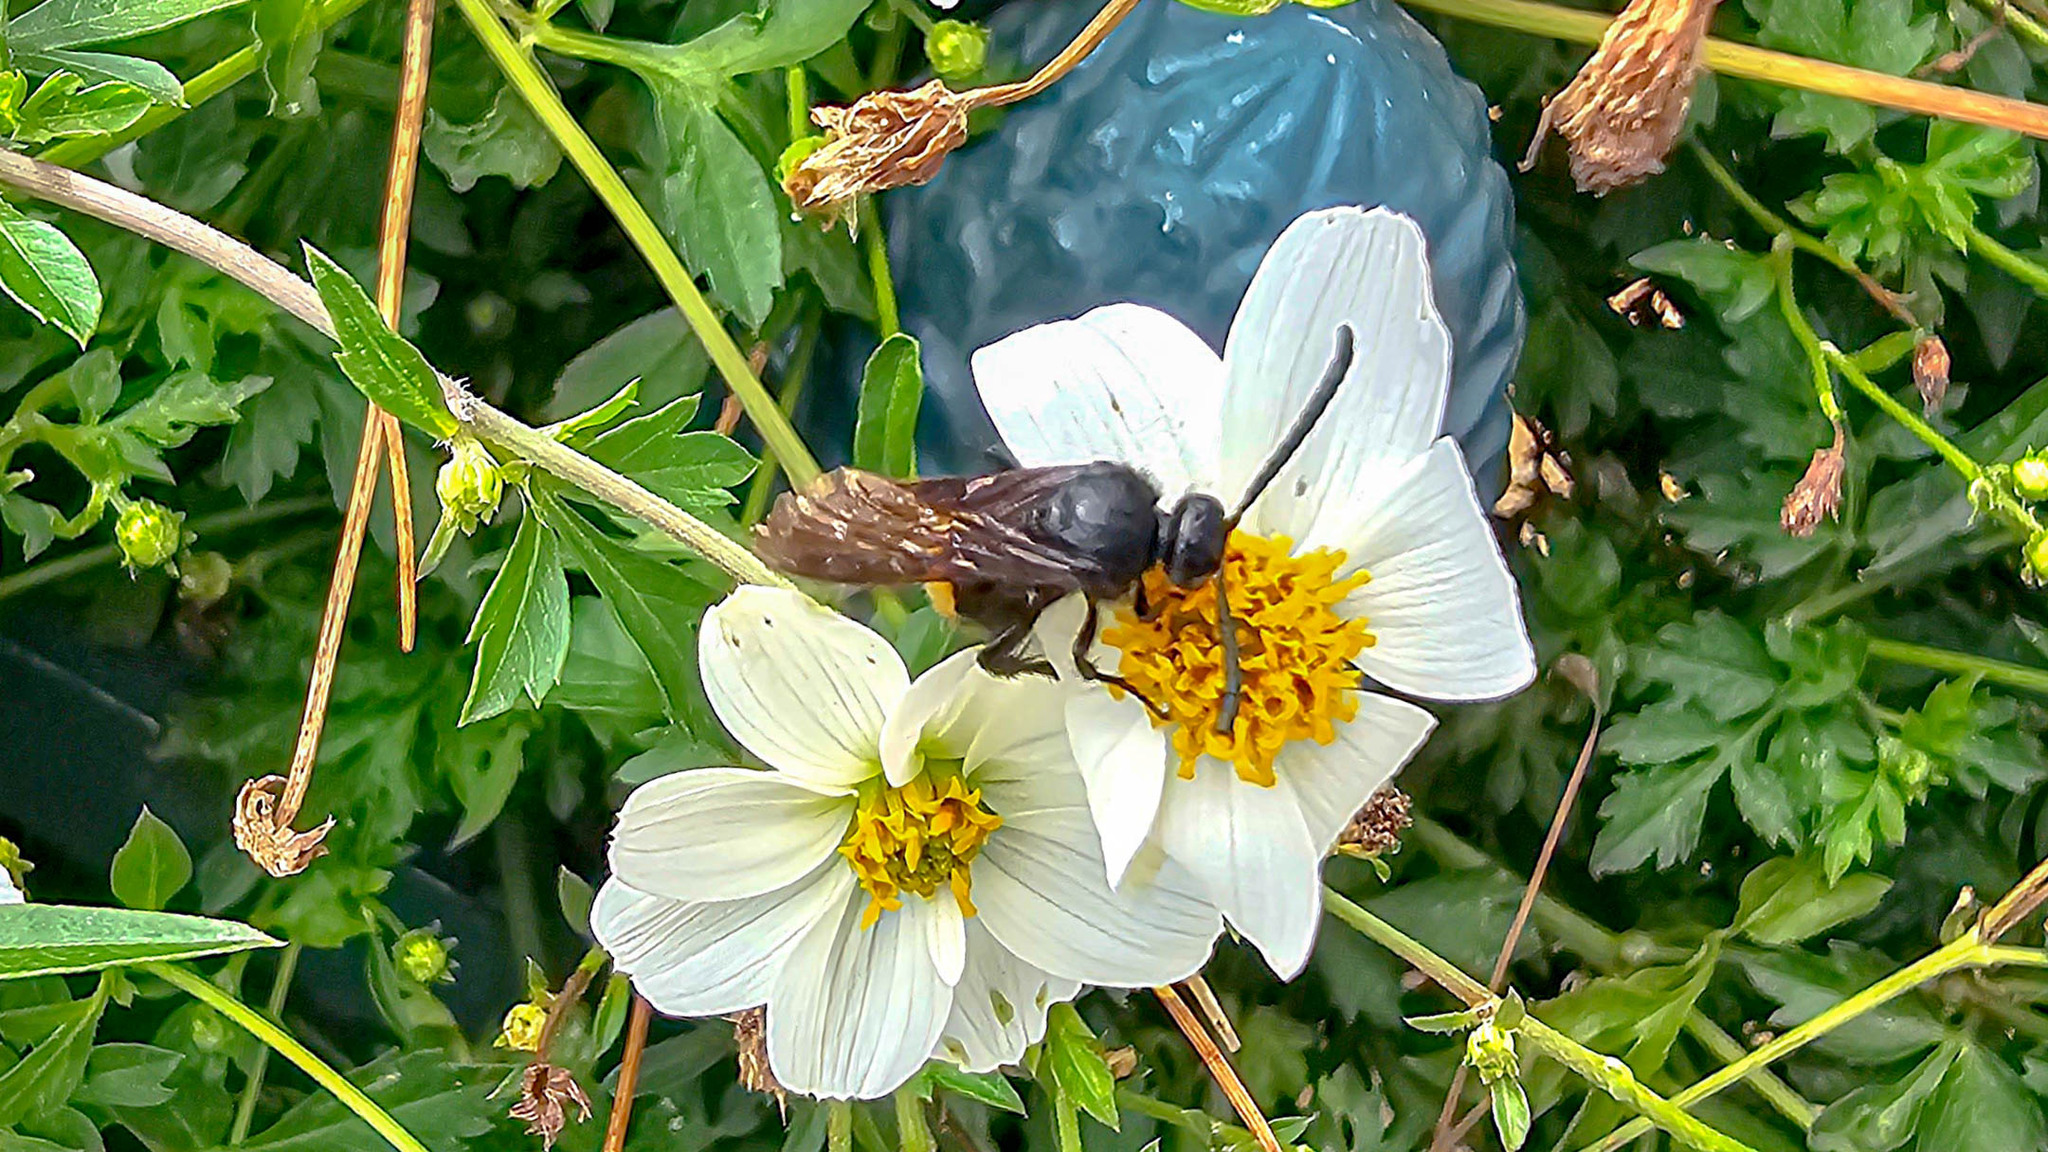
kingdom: Animalia
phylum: Arthropoda
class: Insecta
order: Hymenoptera
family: Scoliidae
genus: Scolia
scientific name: Scolia hirta
